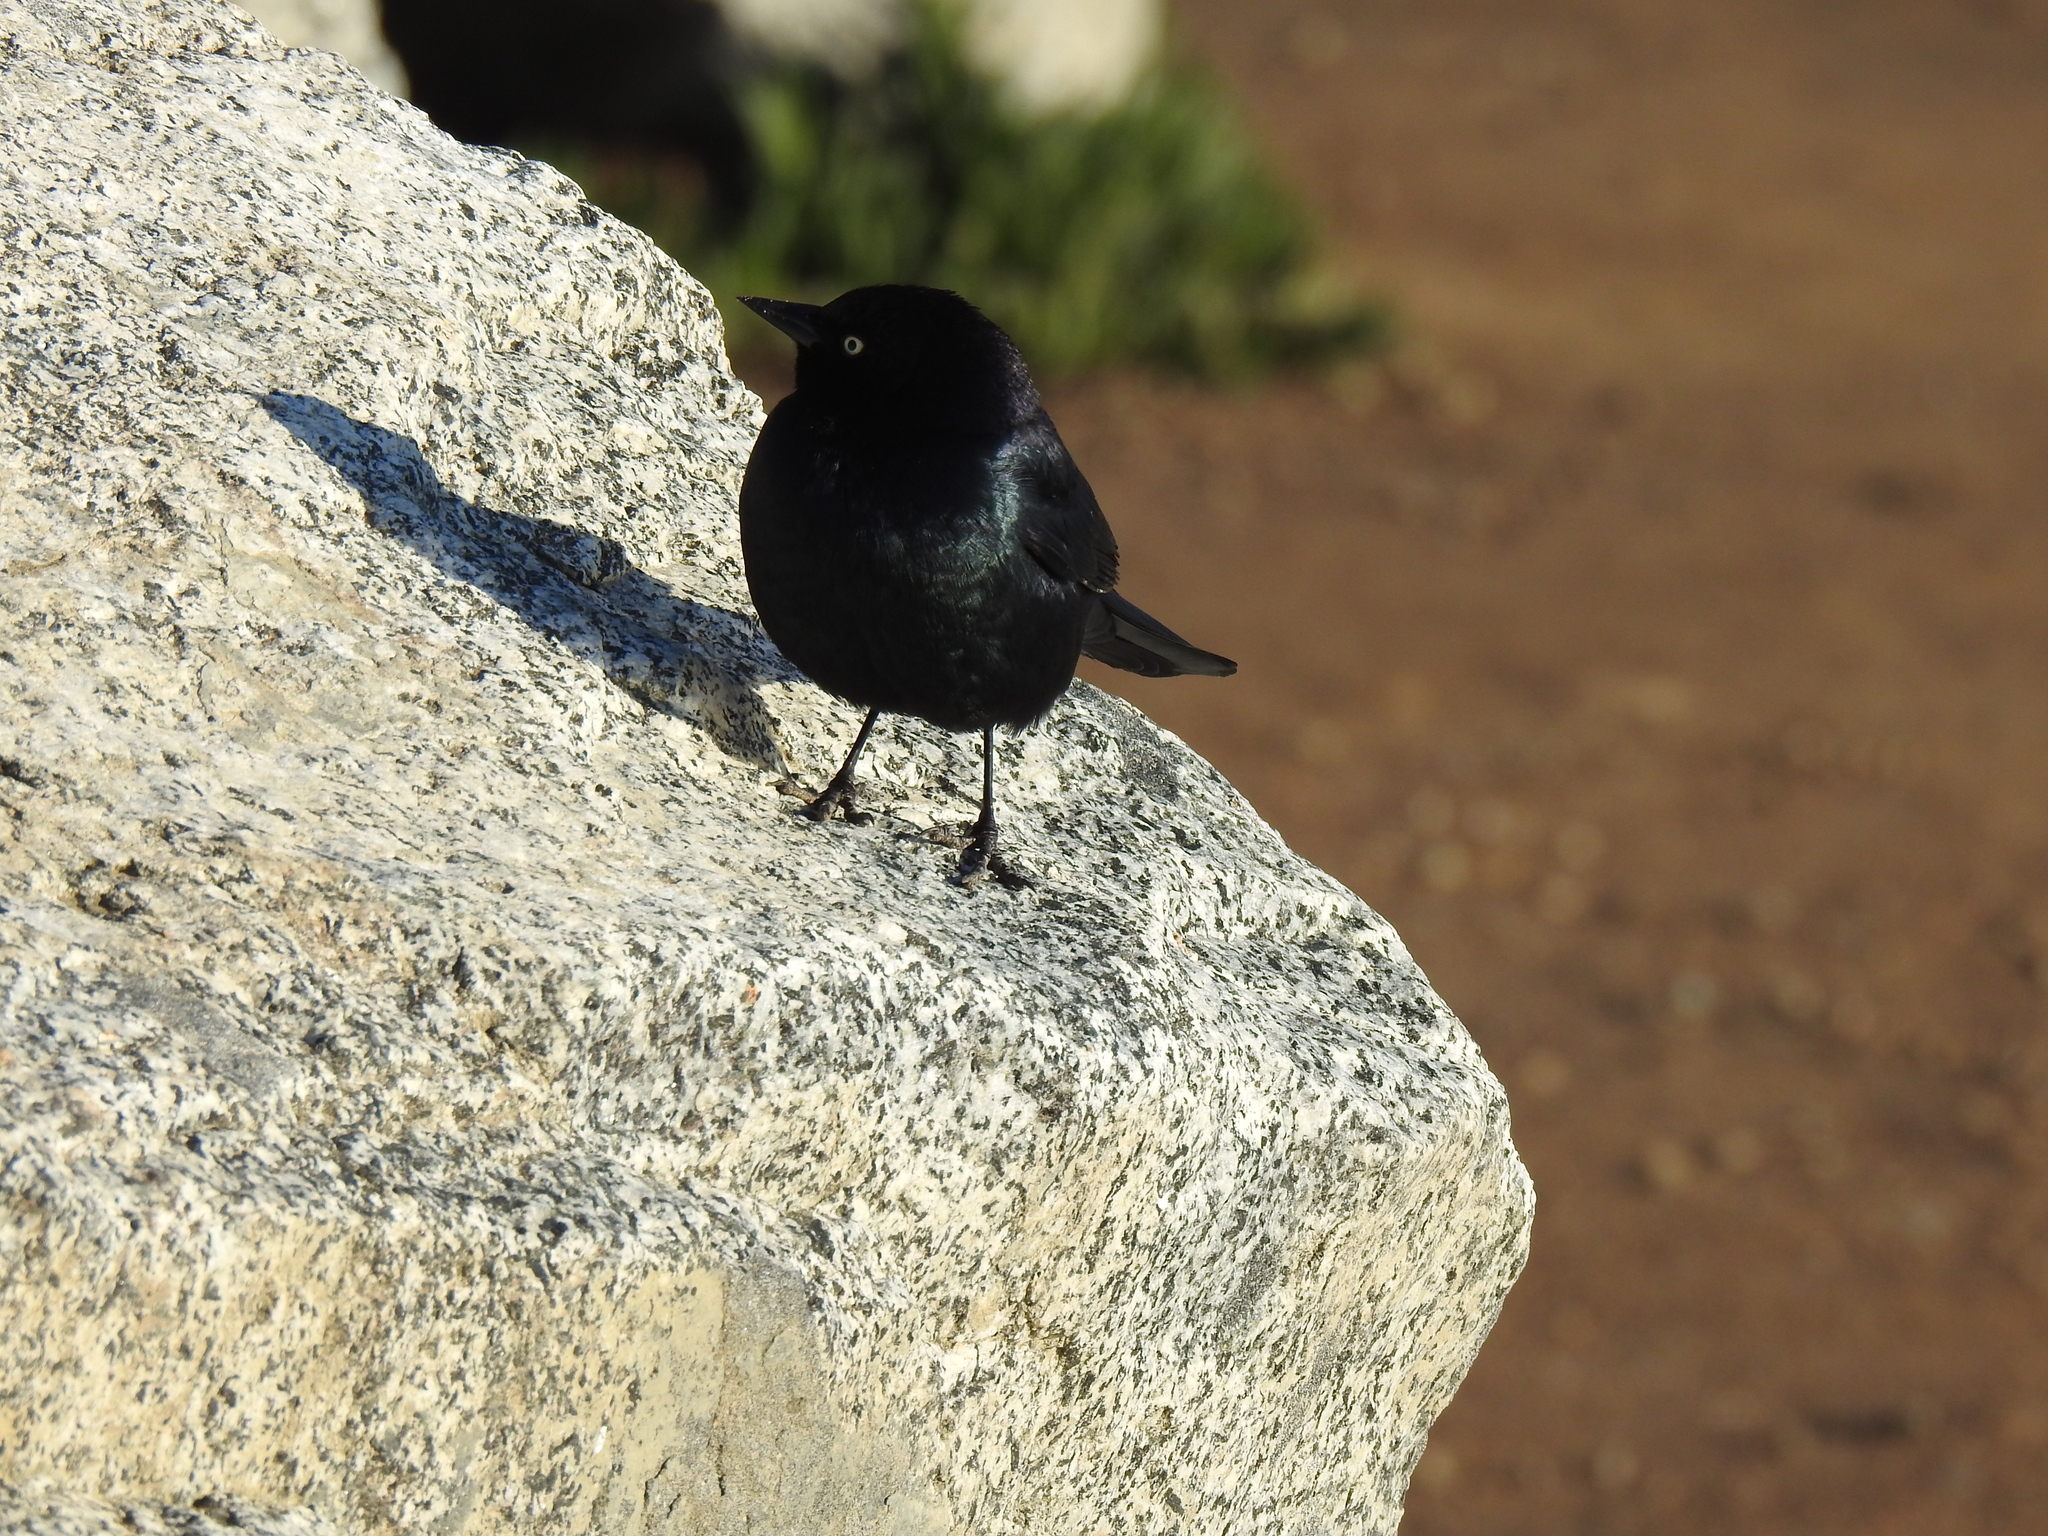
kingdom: Animalia
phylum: Chordata
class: Aves
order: Passeriformes
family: Icteridae
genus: Euphagus
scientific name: Euphagus cyanocephalus
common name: Brewer's blackbird
